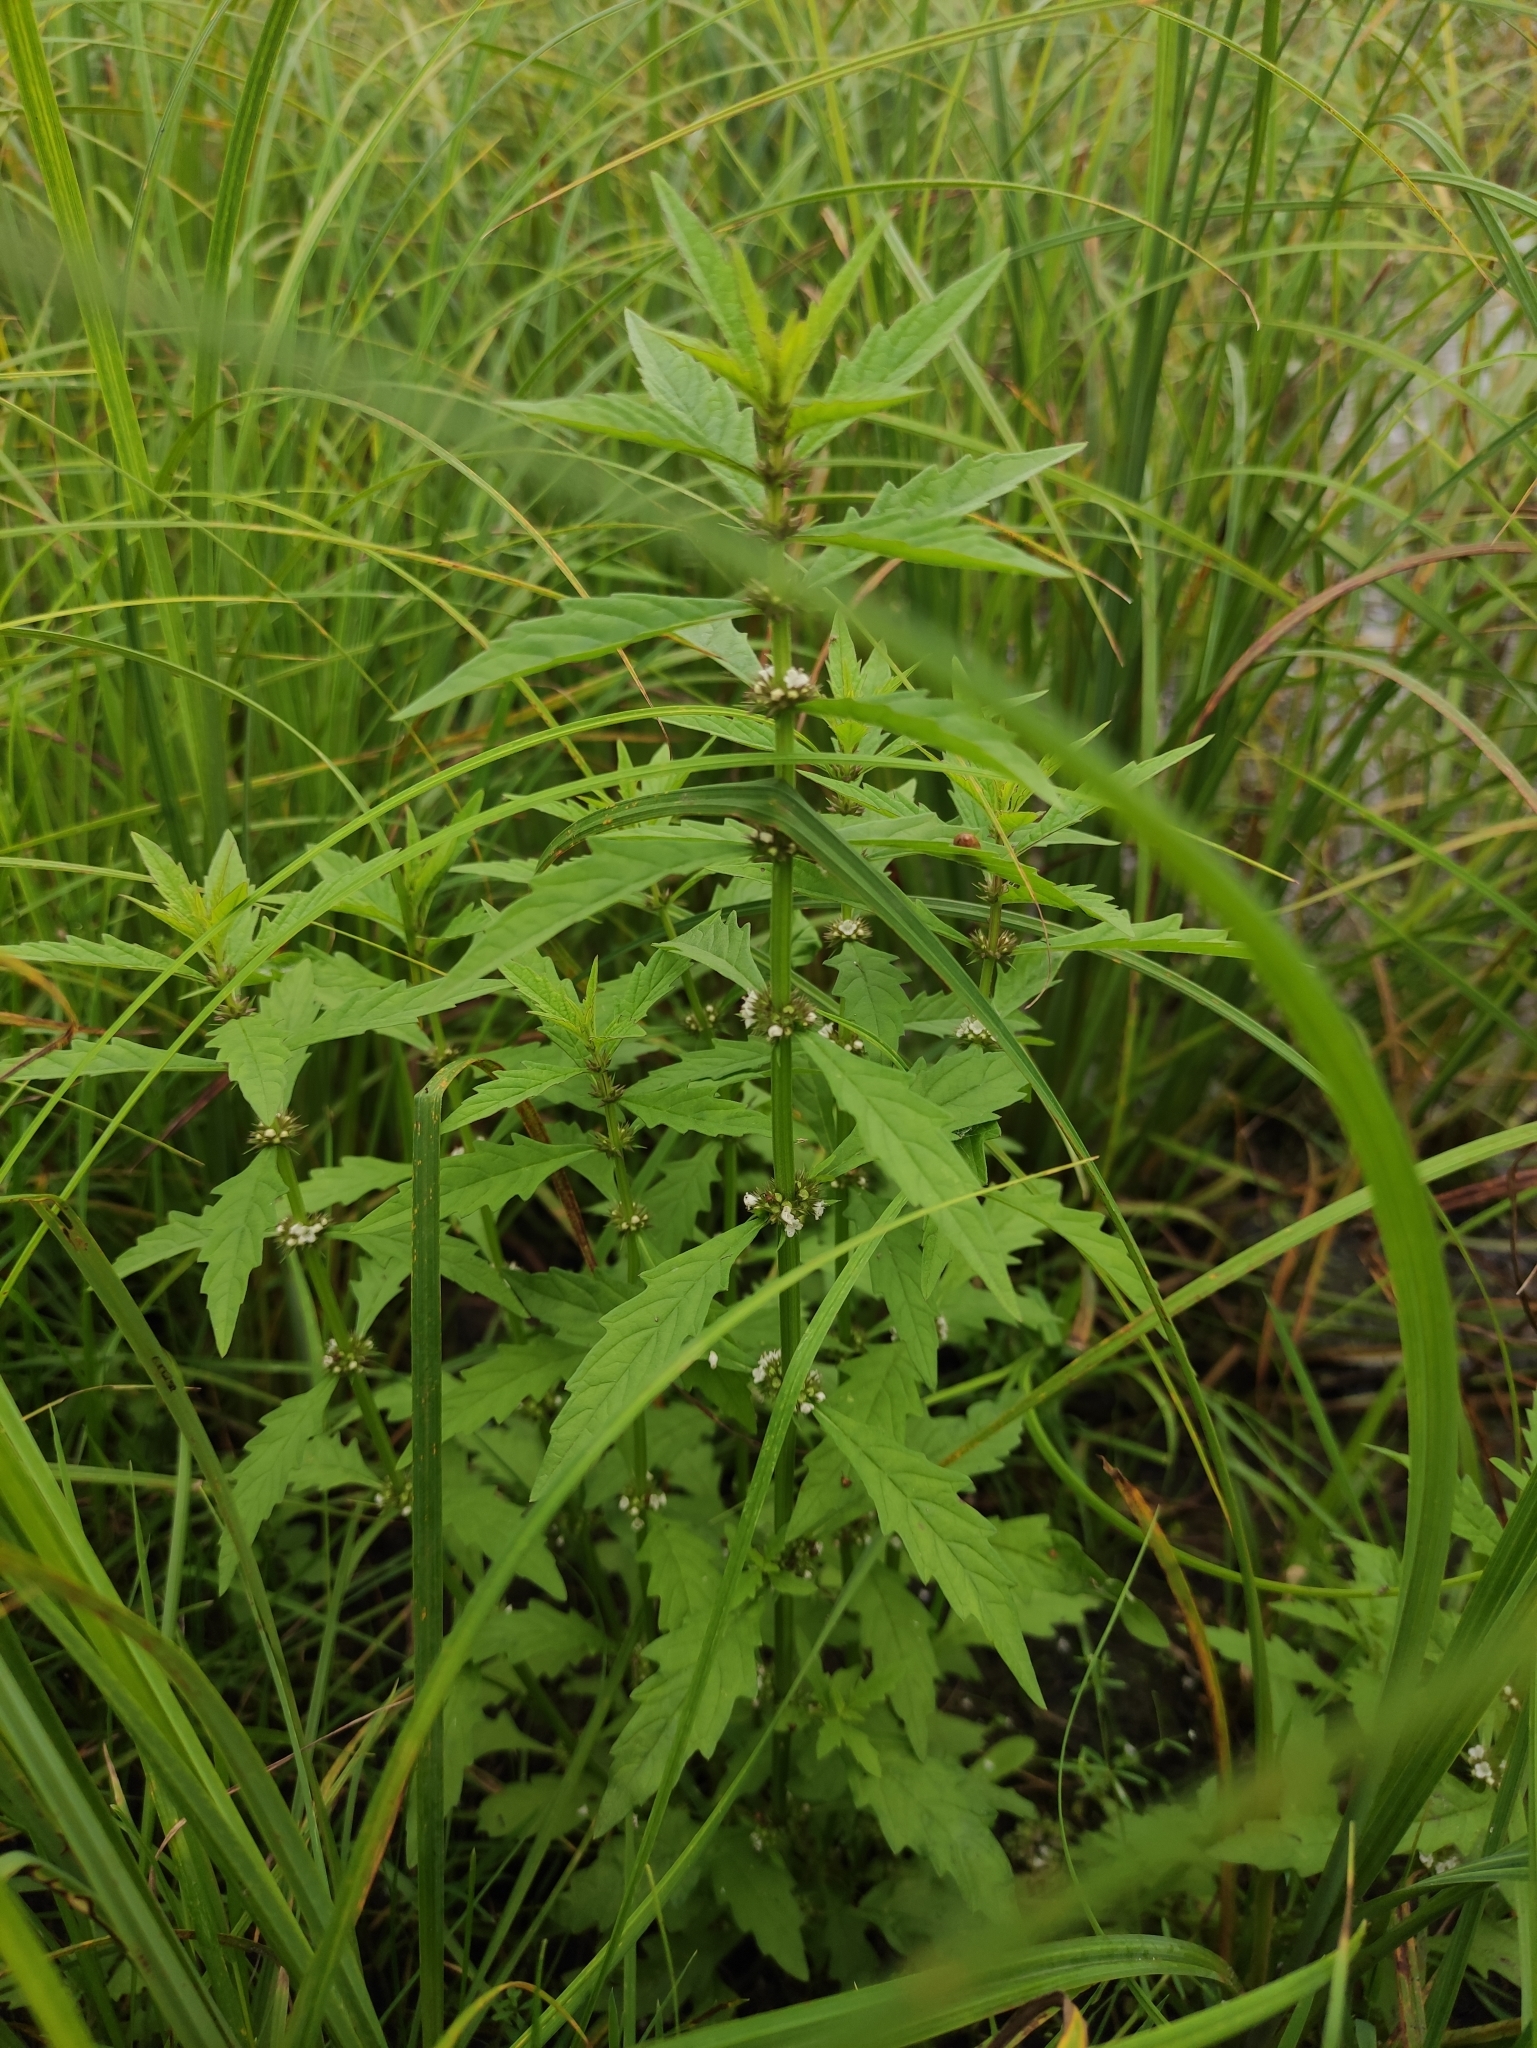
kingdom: Plantae
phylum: Tracheophyta
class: Magnoliopsida
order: Lamiales
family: Lamiaceae
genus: Lycopus
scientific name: Lycopus europaeus
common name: European bugleweed
